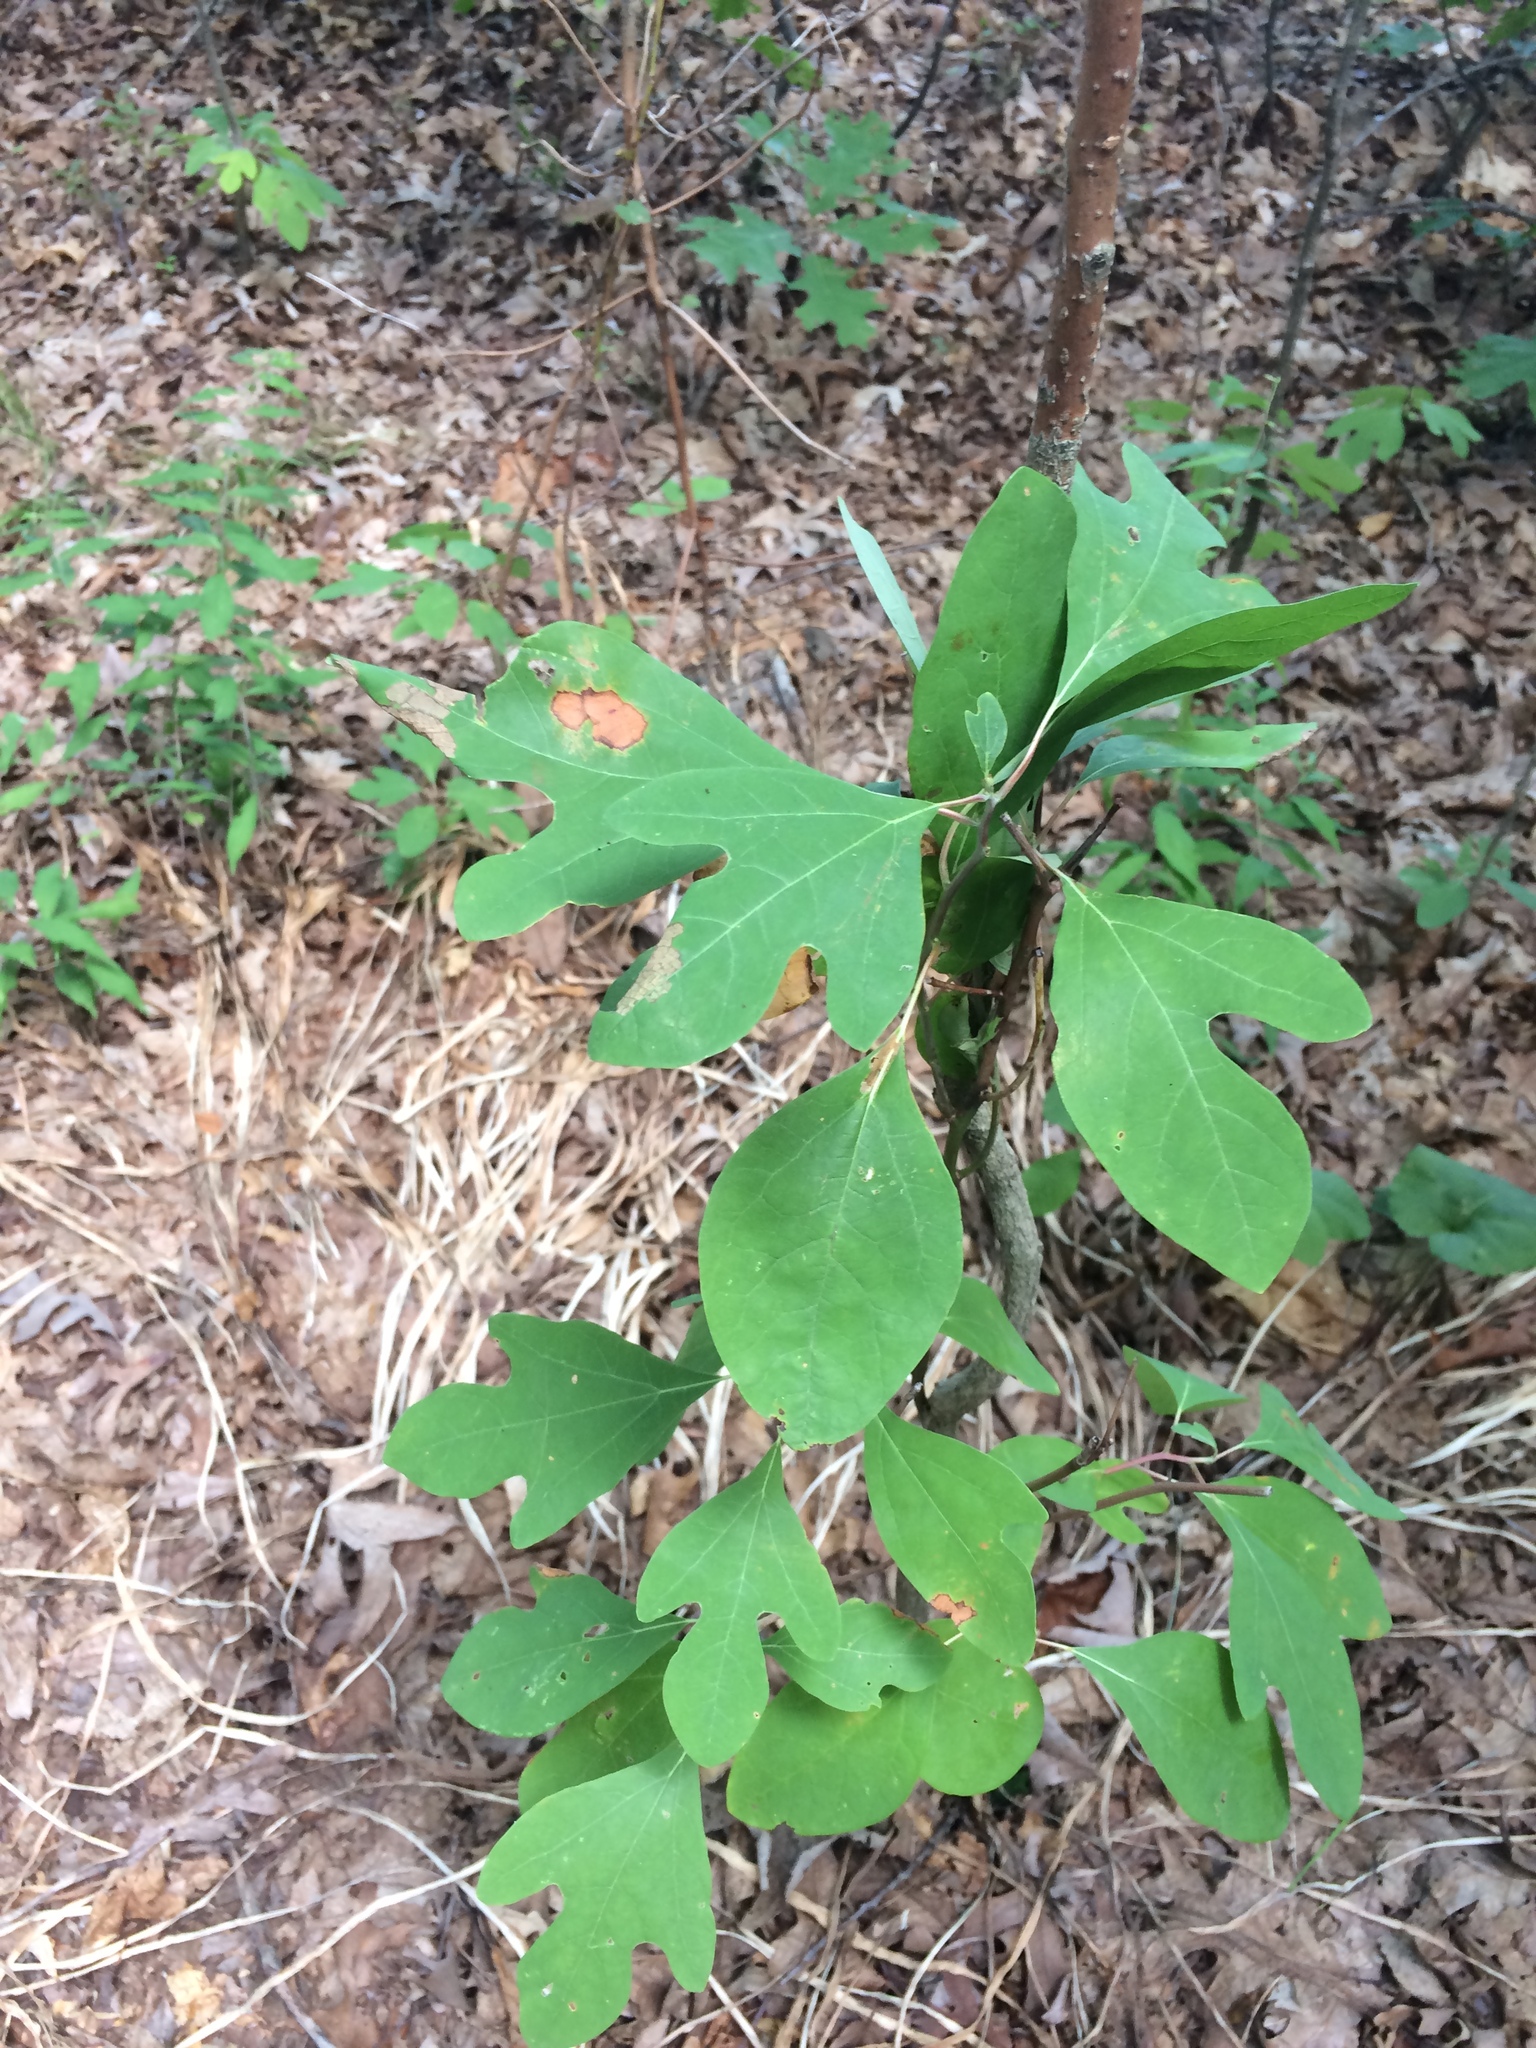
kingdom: Plantae
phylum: Tracheophyta
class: Magnoliopsida
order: Laurales
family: Lauraceae
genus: Sassafras
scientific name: Sassafras albidum
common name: Sassafras
